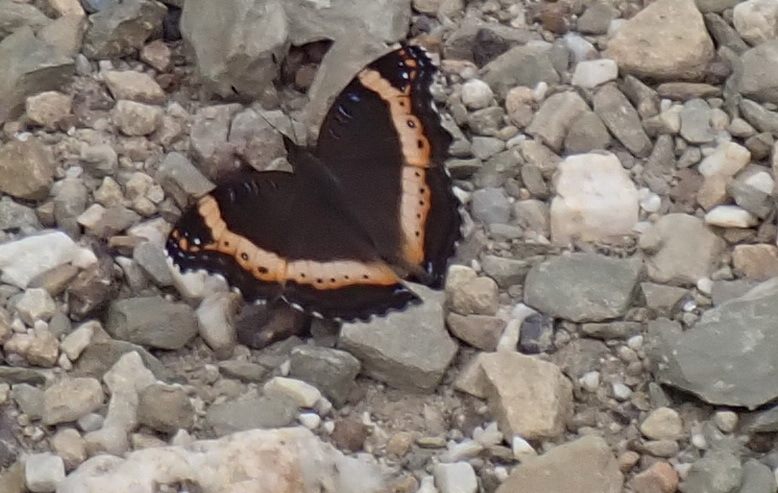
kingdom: Animalia
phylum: Arthropoda
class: Insecta
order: Lepidoptera
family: Nymphalidae
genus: Junonia
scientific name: Junonia archesia
